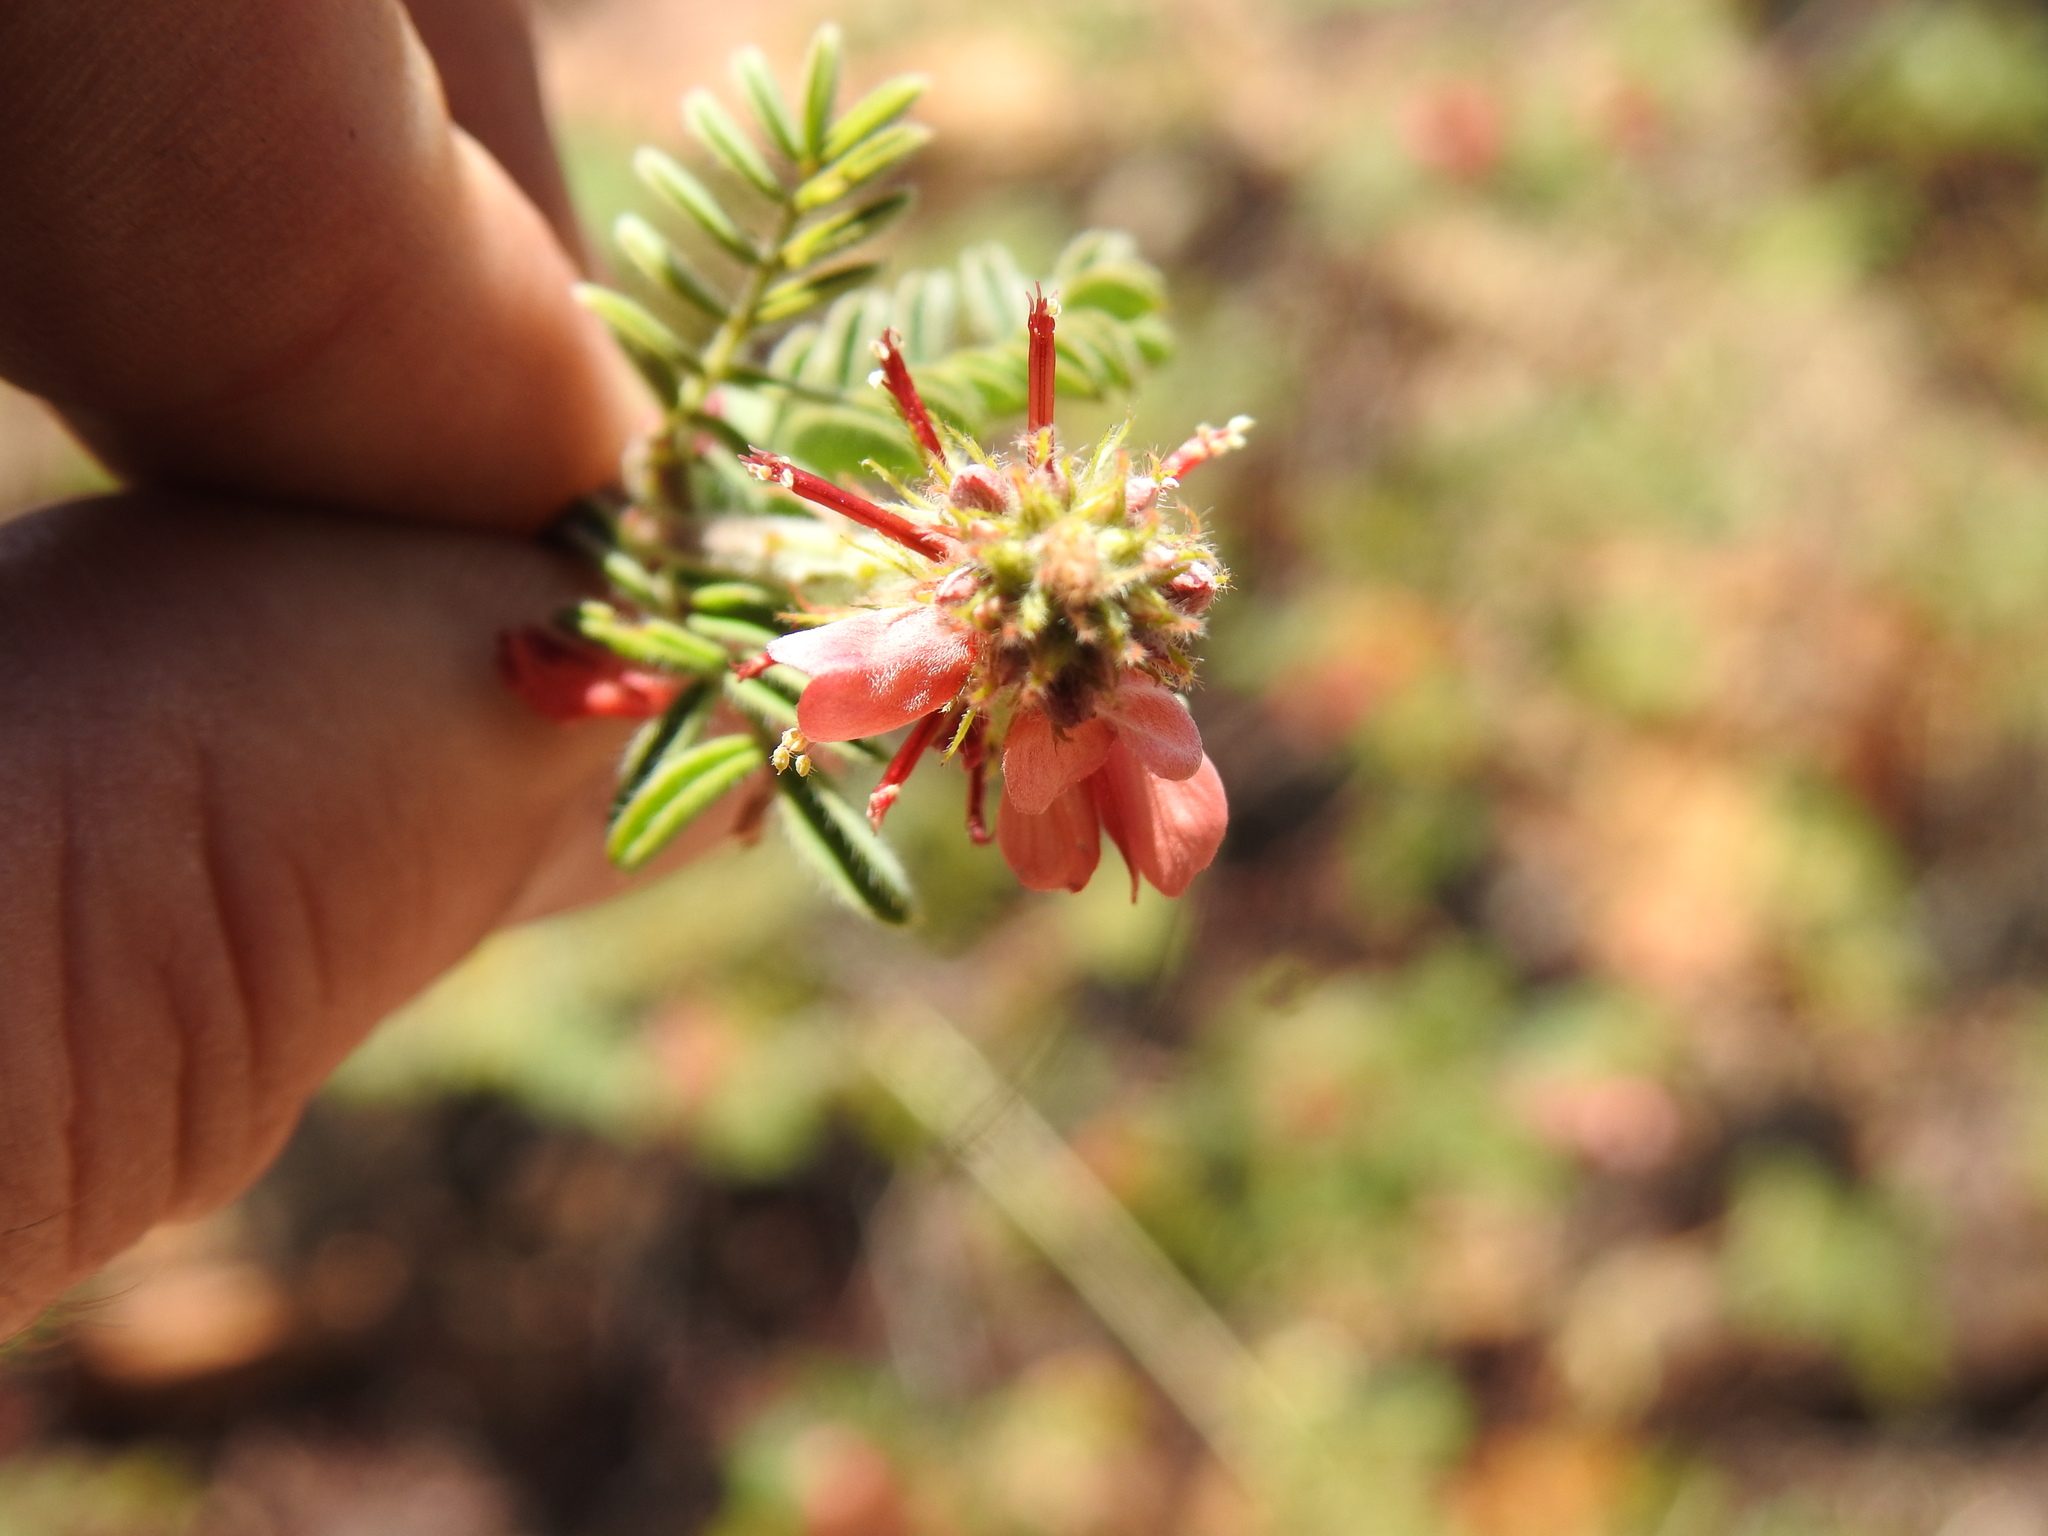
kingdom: Plantae
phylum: Tracheophyta
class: Magnoliopsida
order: Fabales
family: Fabaceae
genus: Indigofera
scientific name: Indigofera comosa
